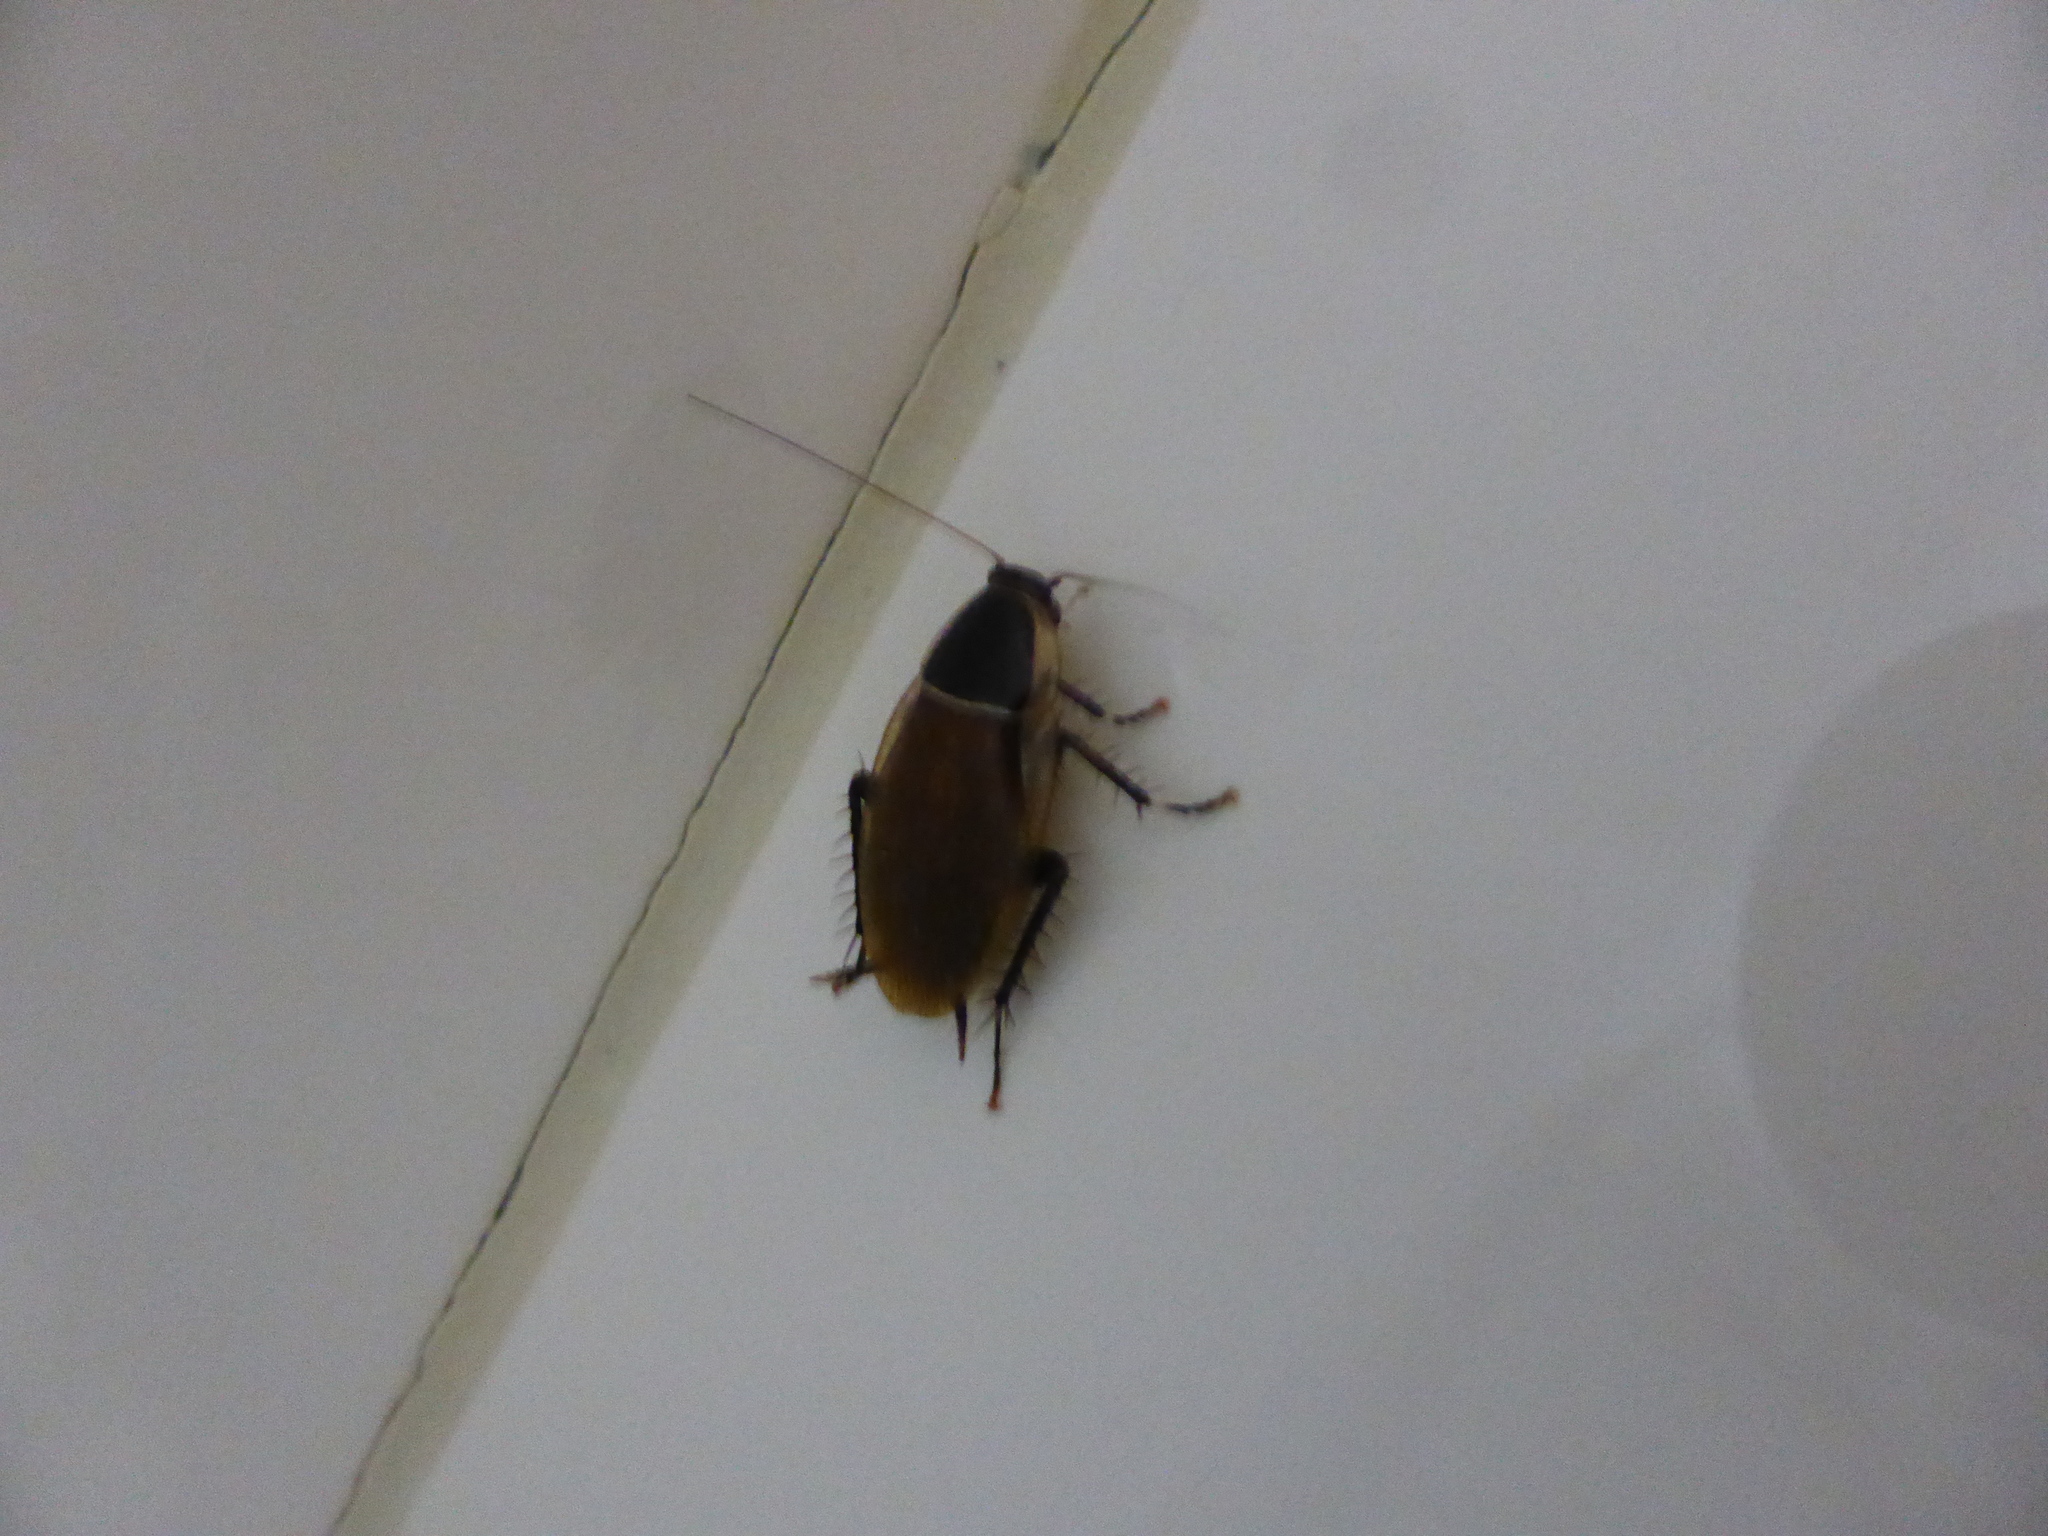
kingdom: Animalia
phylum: Arthropoda
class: Insecta
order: Blattodea
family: Ectobiidae
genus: Anallacta
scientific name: Anallacta methanoides
